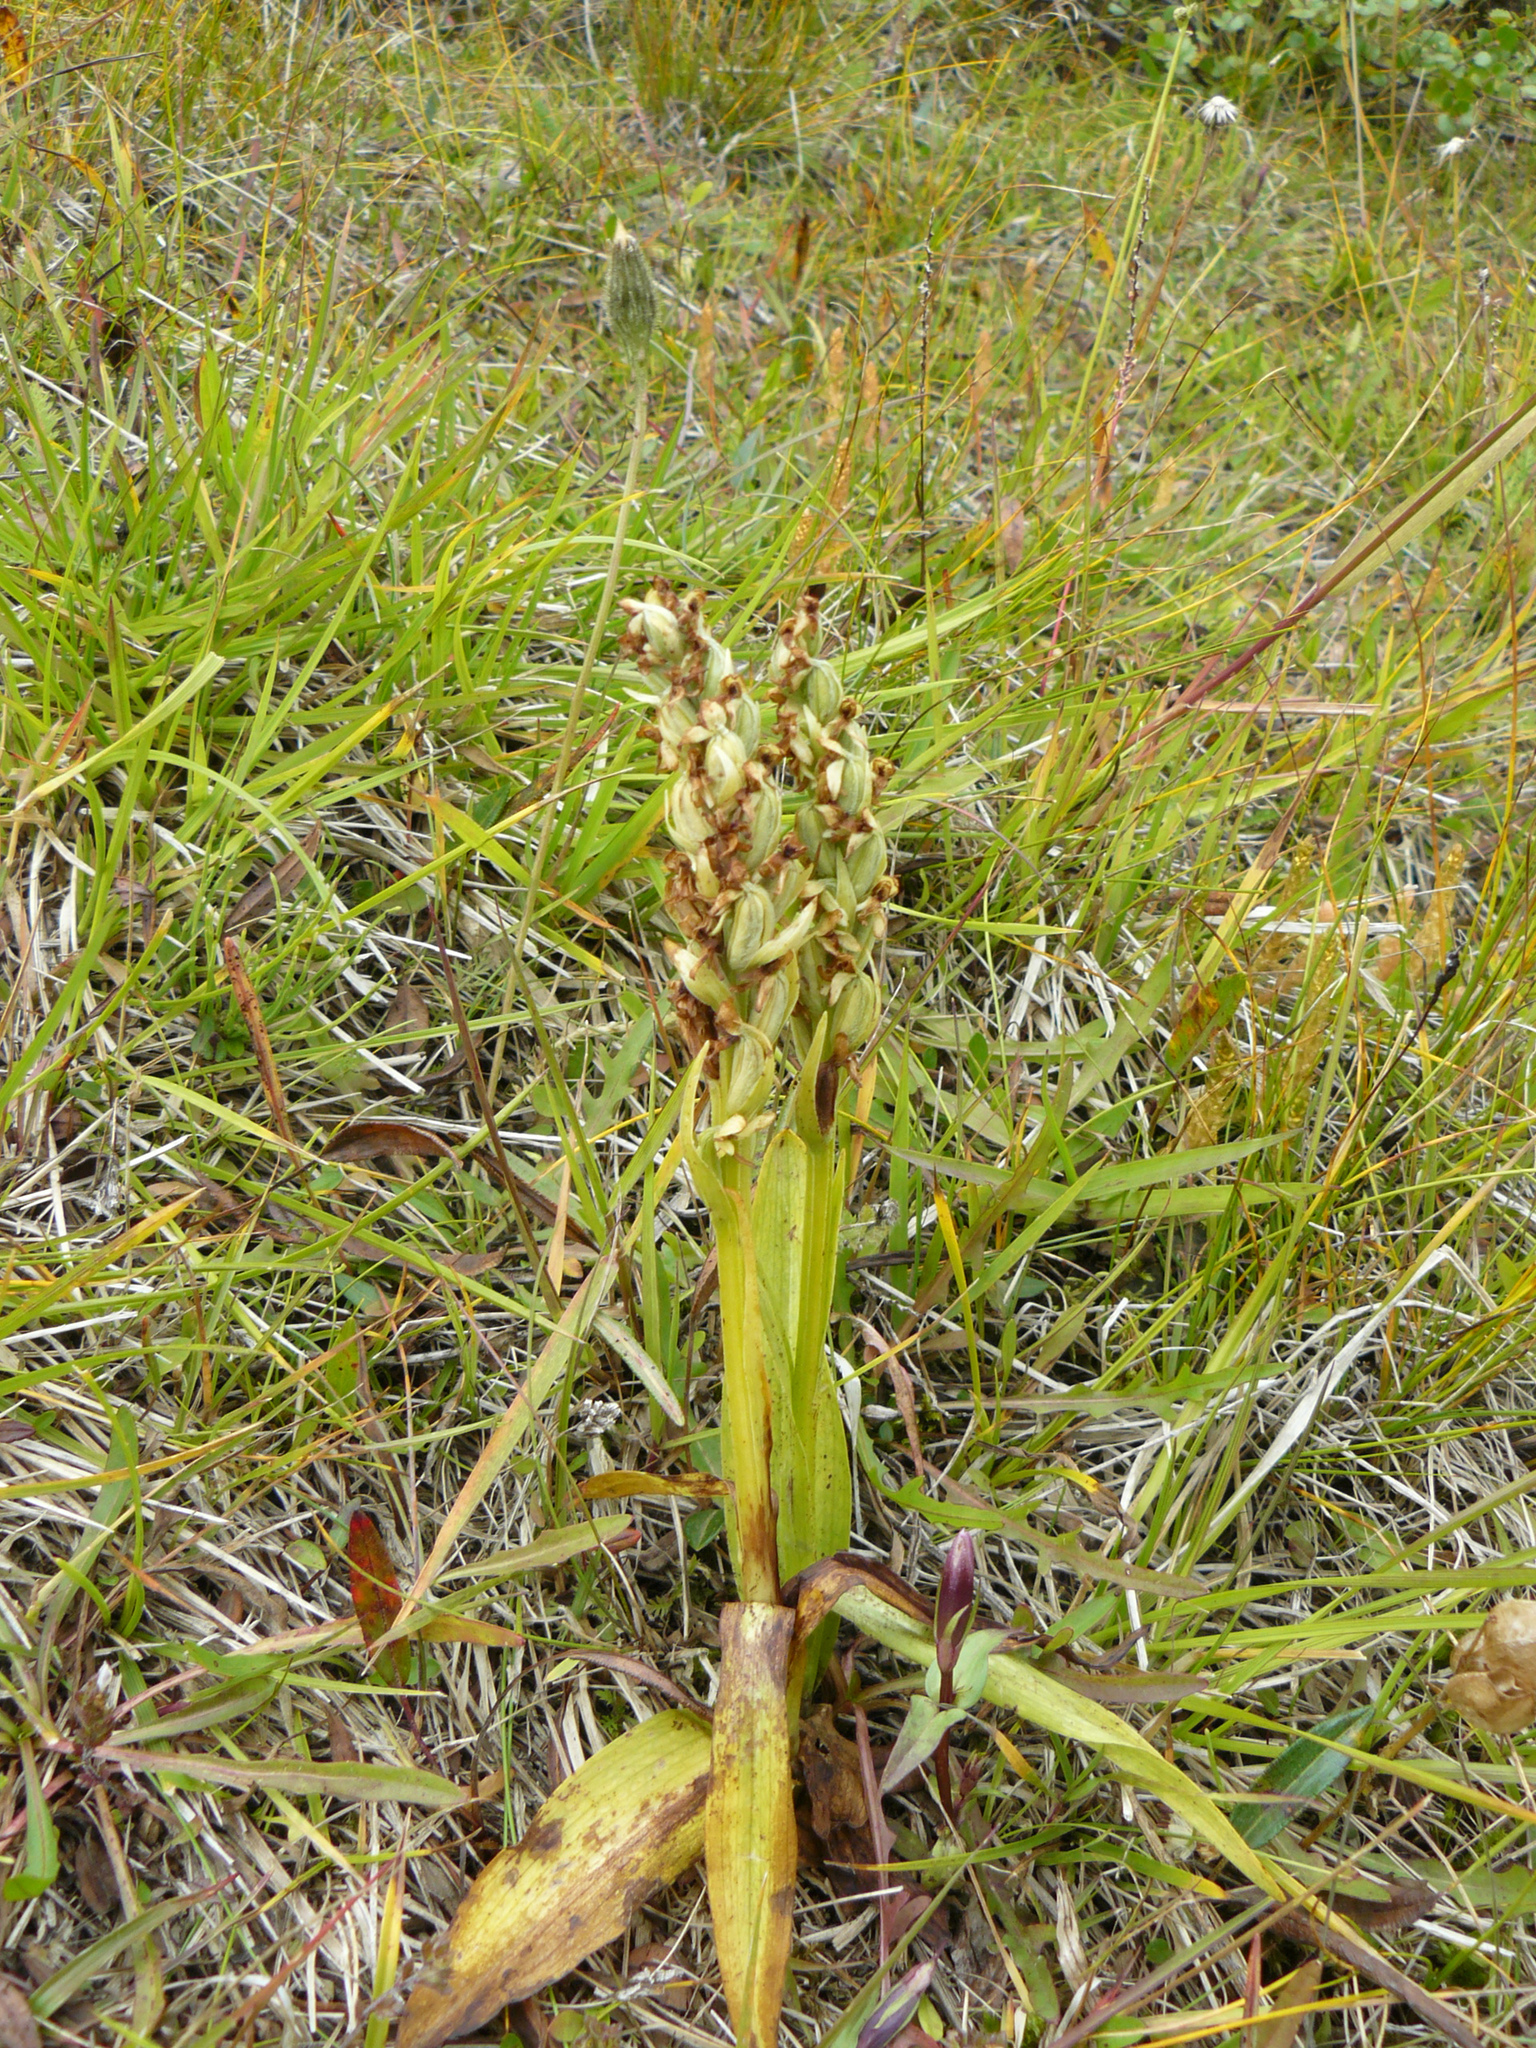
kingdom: Plantae
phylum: Tracheophyta
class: Liliopsida
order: Asparagales
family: Orchidaceae
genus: Platanthera
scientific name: Platanthera hyperborea
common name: Northern green orchid
